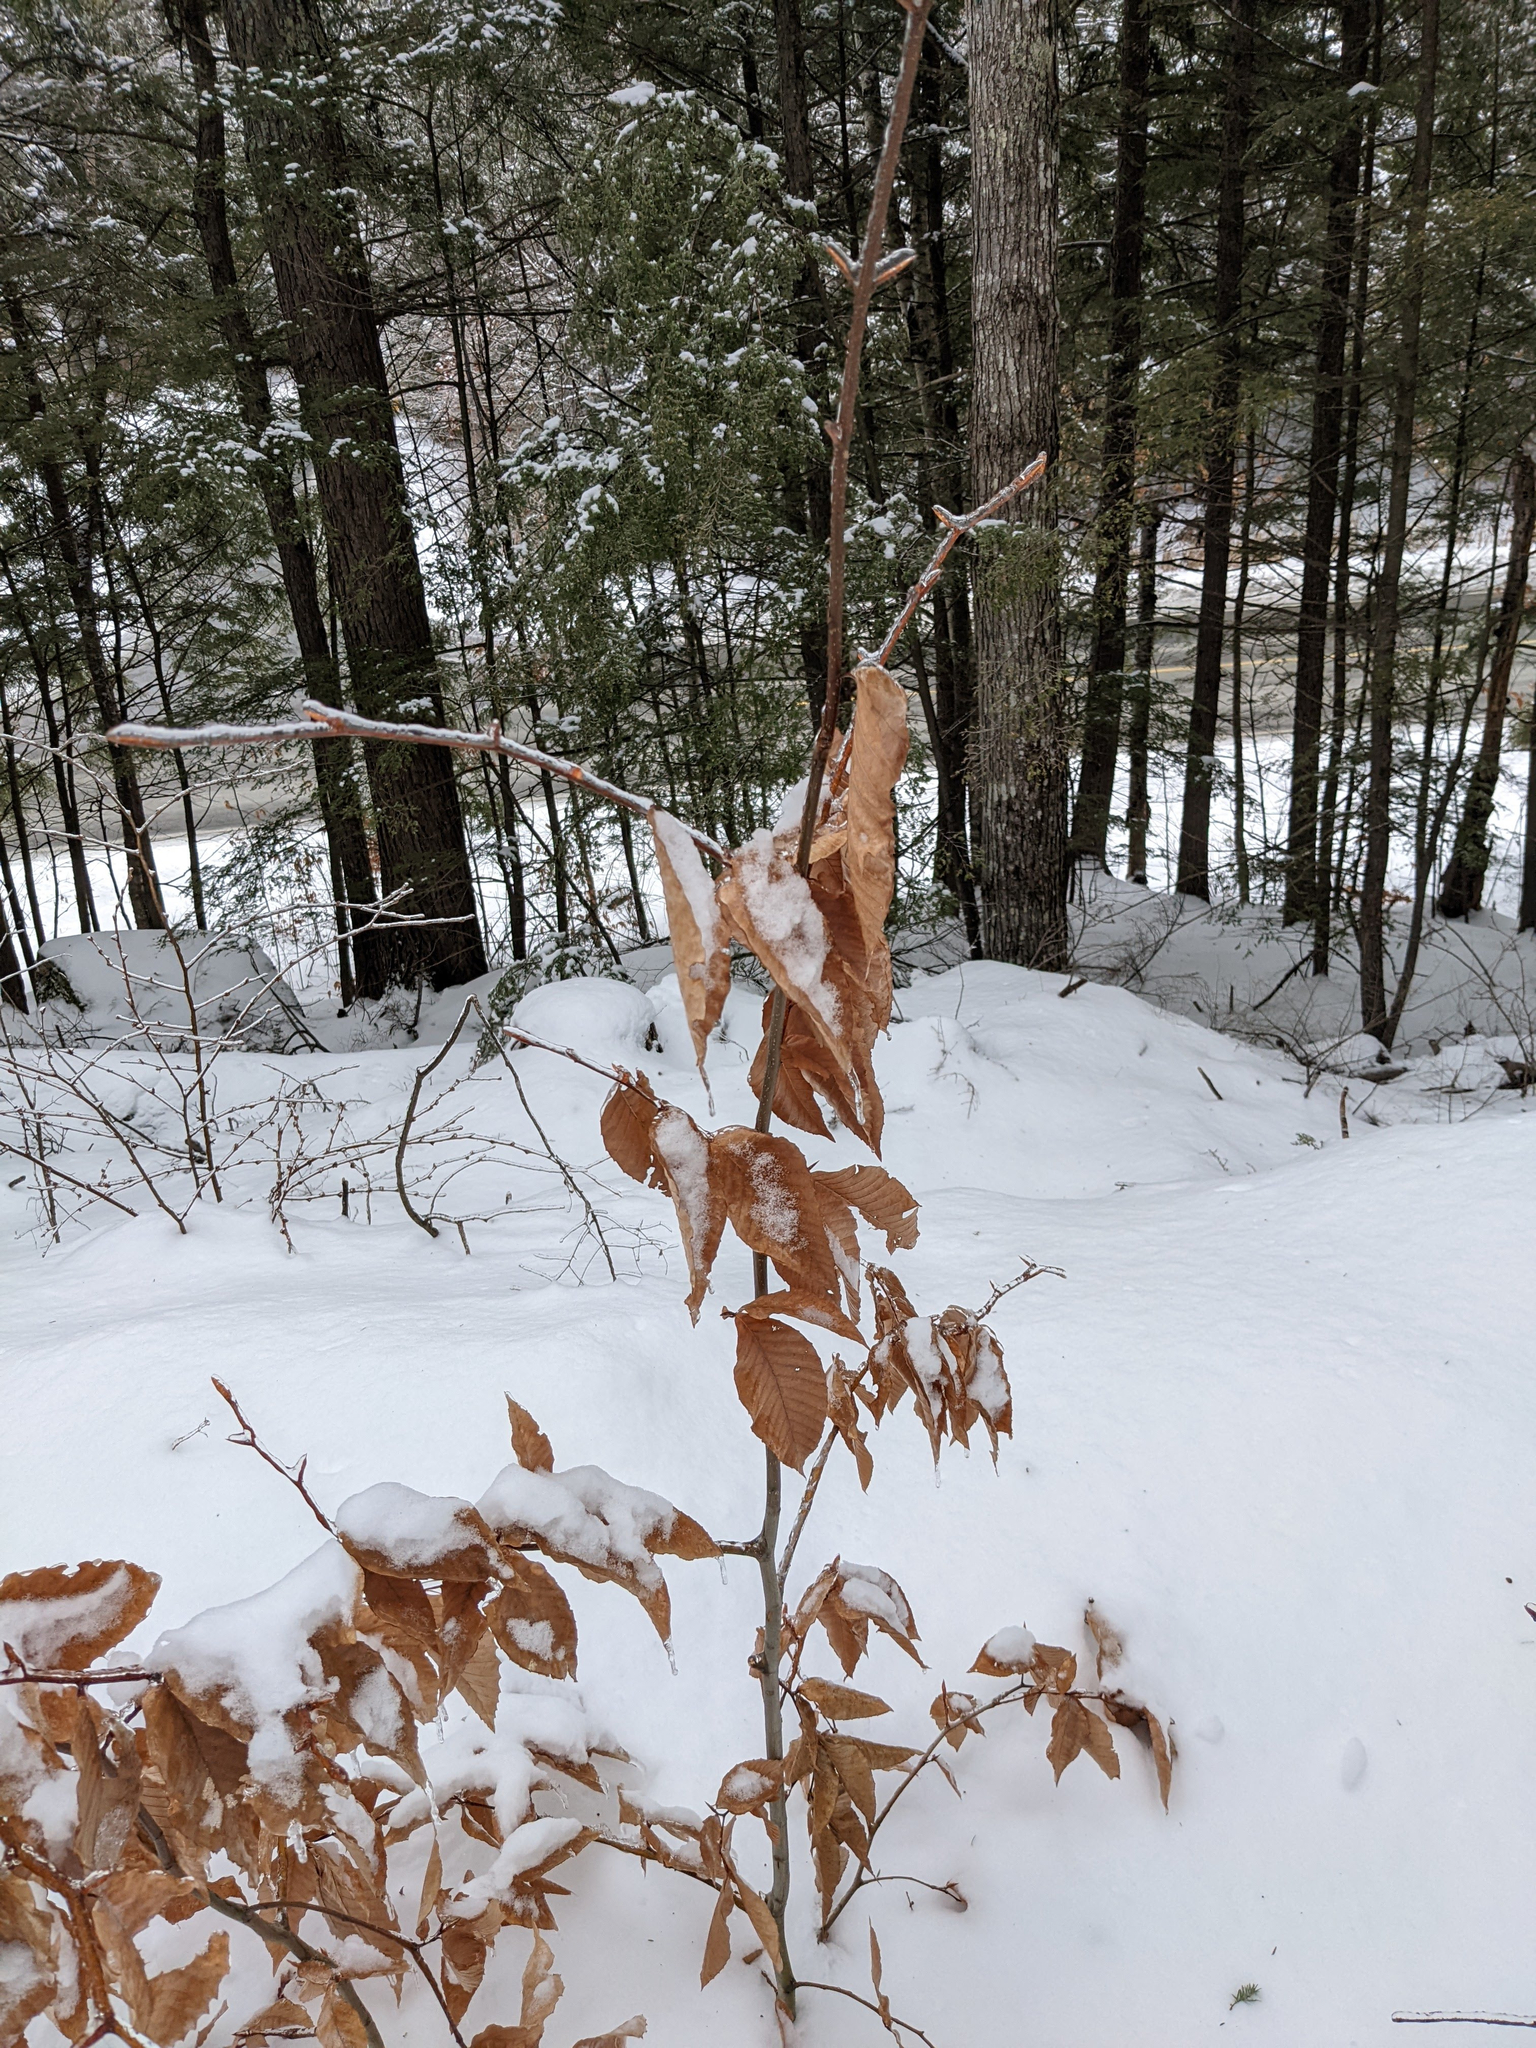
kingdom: Plantae
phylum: Tracheophyta
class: Magnoliopsida
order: Fagales
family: Fagaceae
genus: Fagus
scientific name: Fagus grandifolia
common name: American beech
